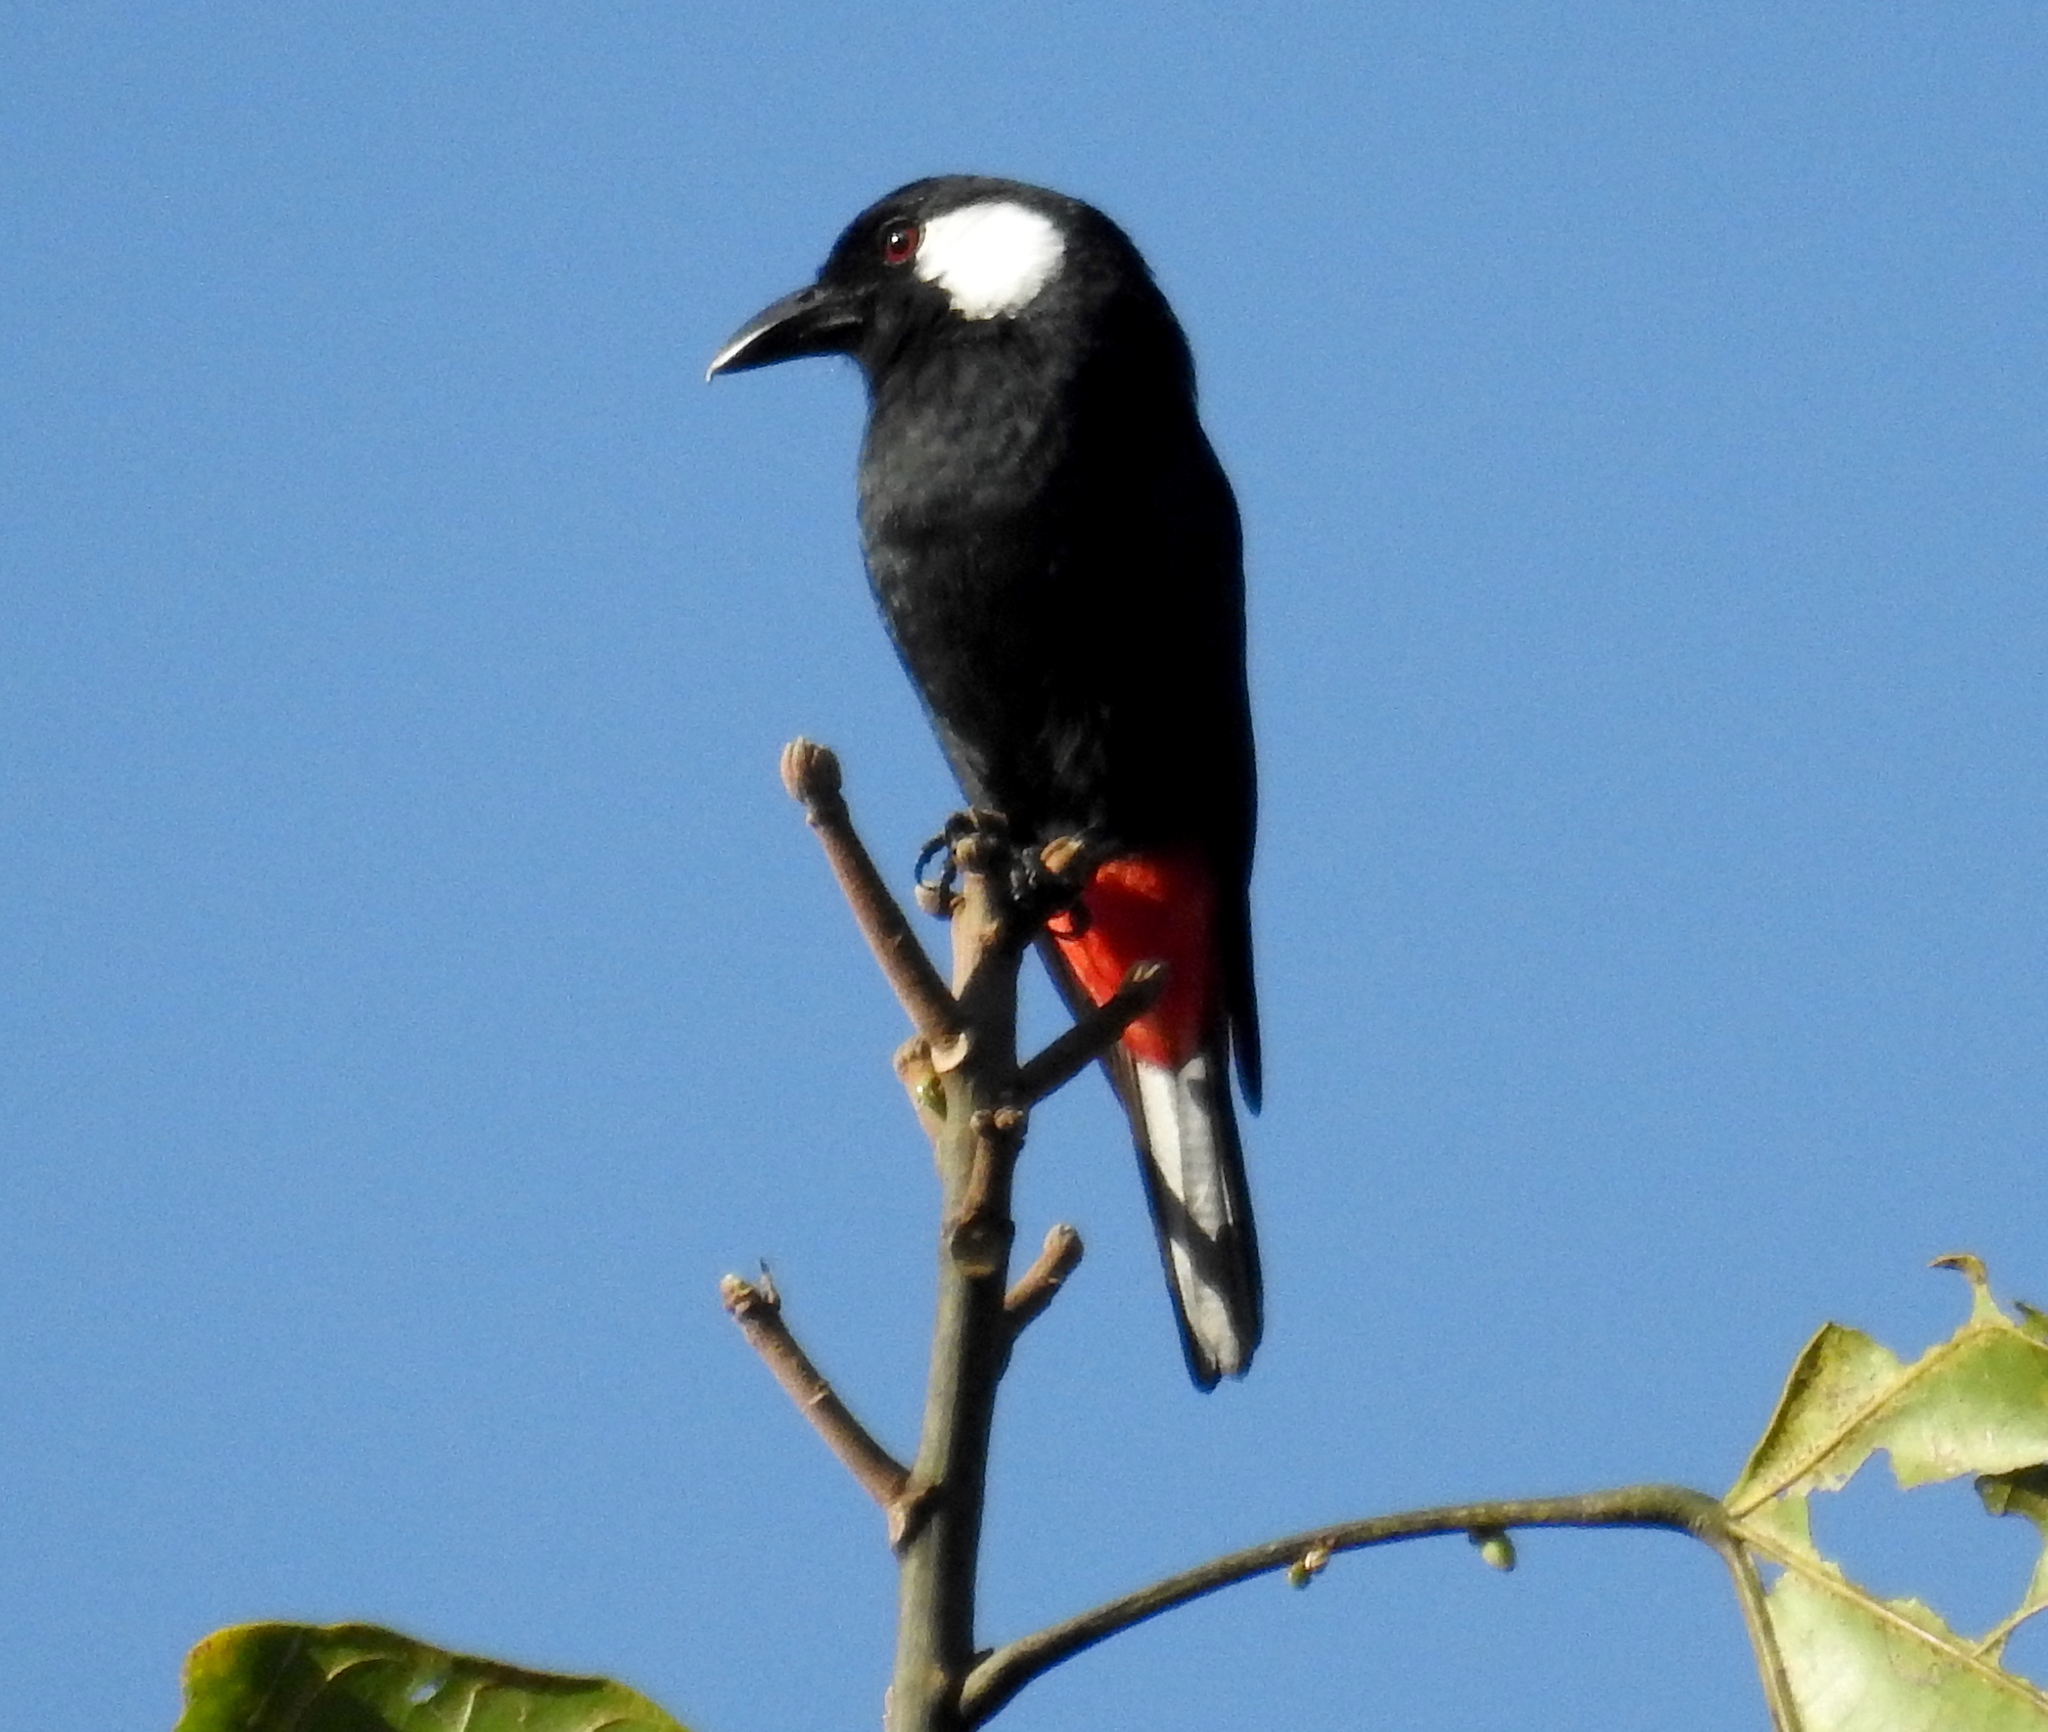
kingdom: Animalia
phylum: Chordata
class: Aves
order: Passeriformes
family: Cracticidae
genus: Peltops
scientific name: Peltops blainvillii
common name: Lowland peltops
